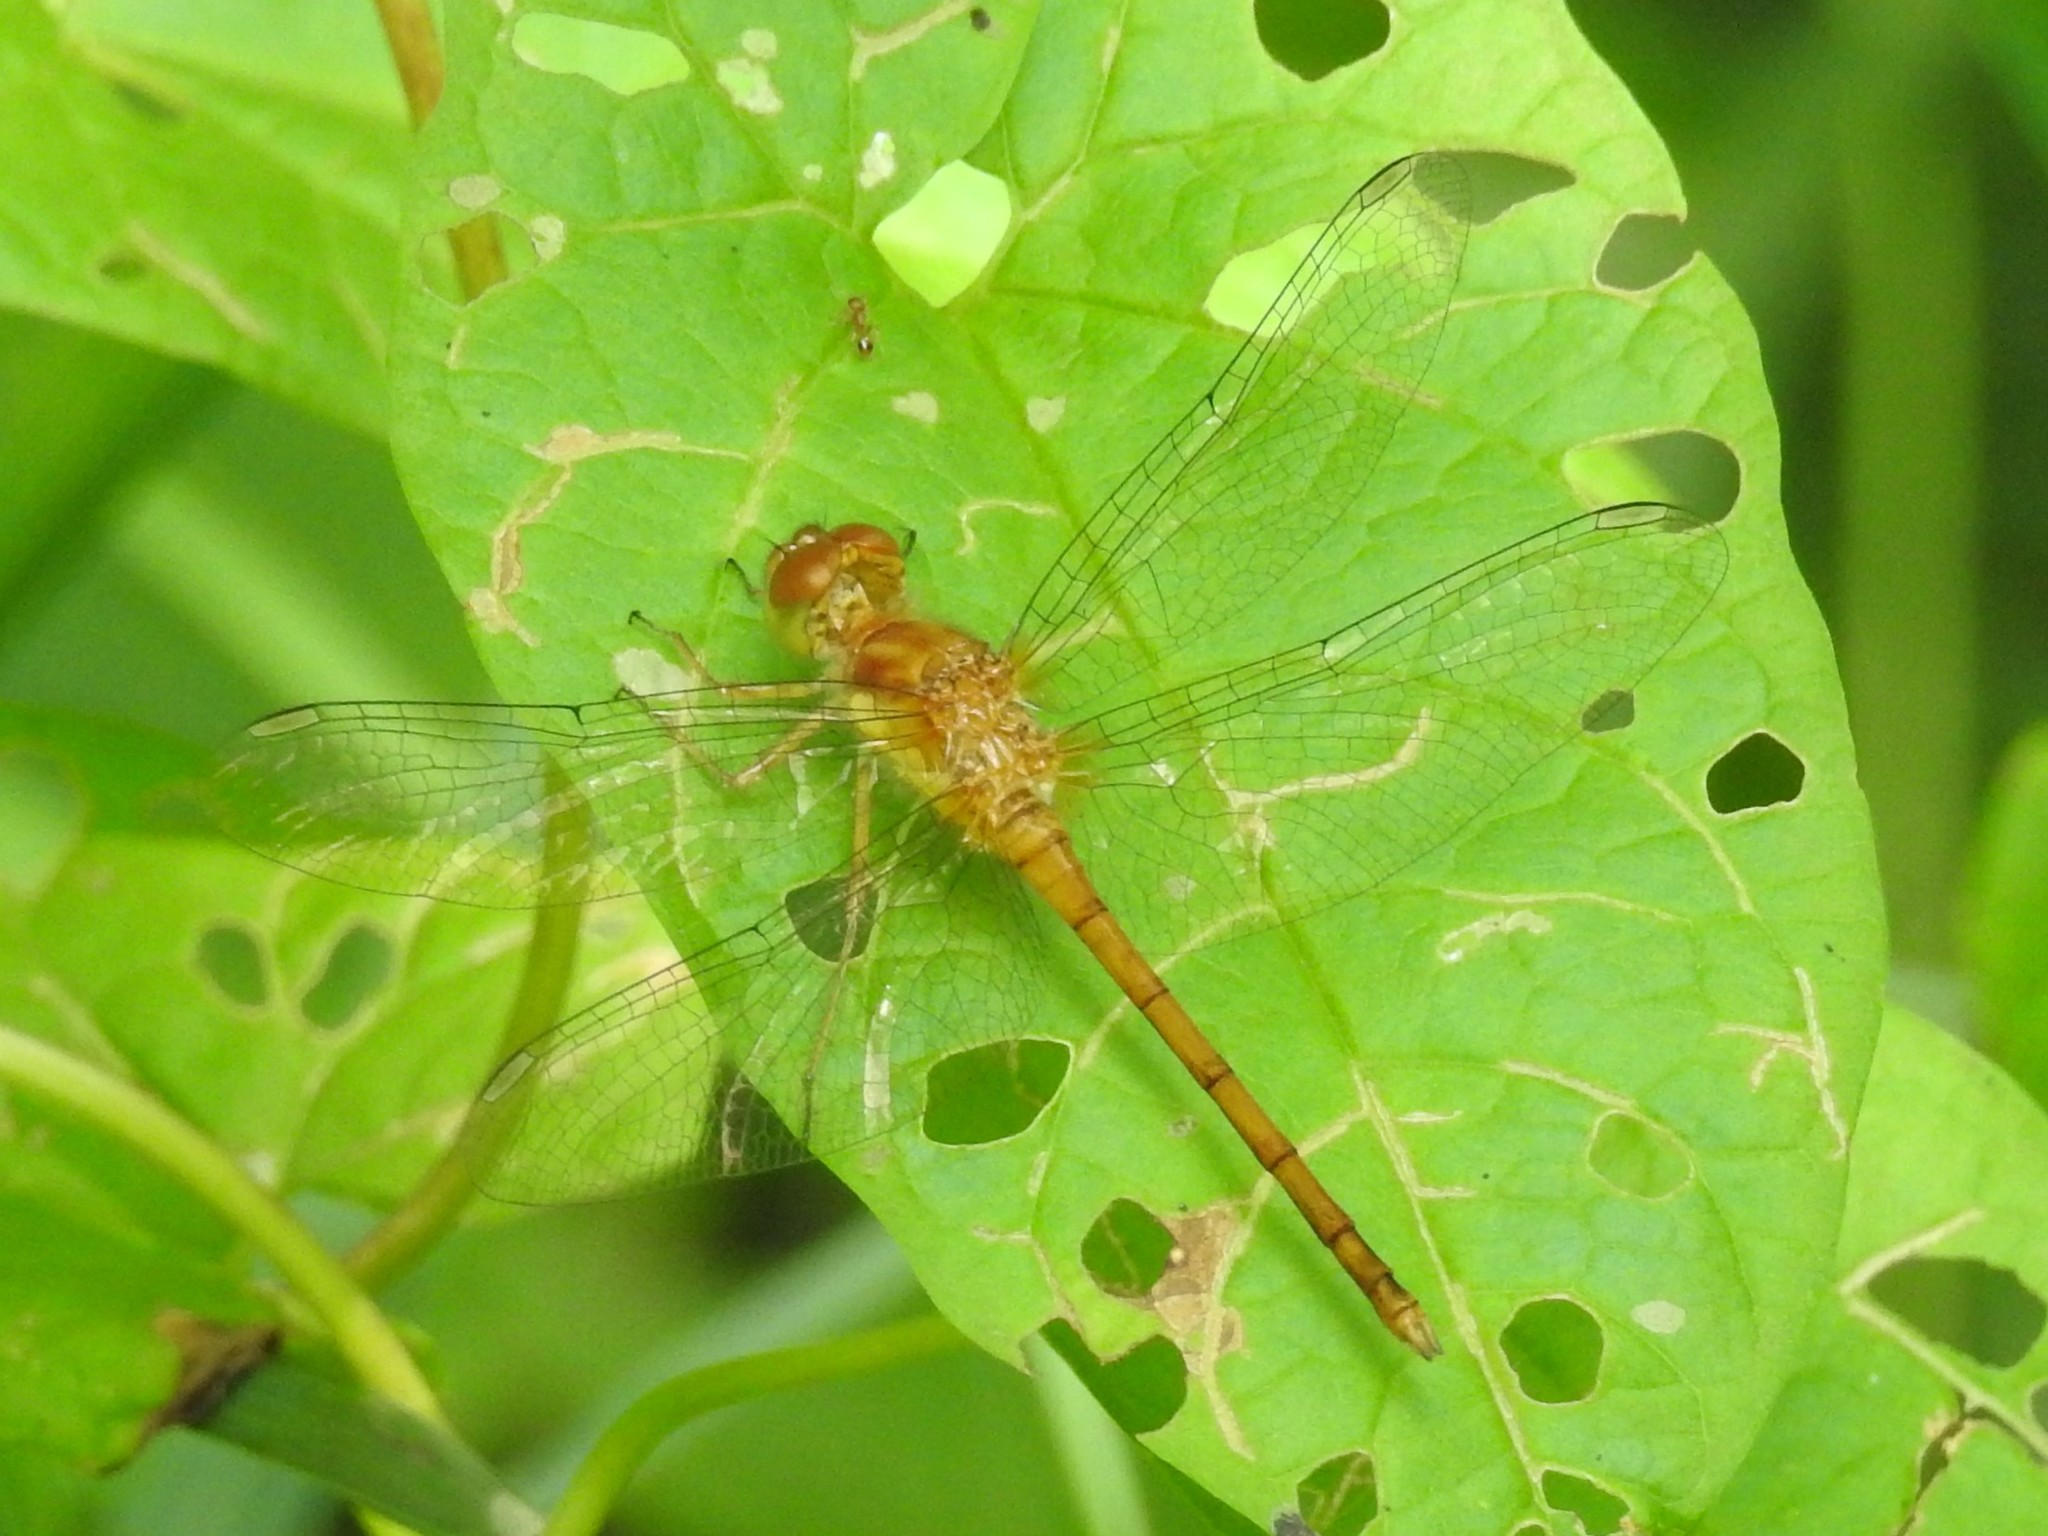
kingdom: Animalia
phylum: Arthropoda
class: Insecta
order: Odonata
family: Libellulidae
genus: Sympetrum
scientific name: Sympetrum vicinum
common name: Autumn meadowhawk
